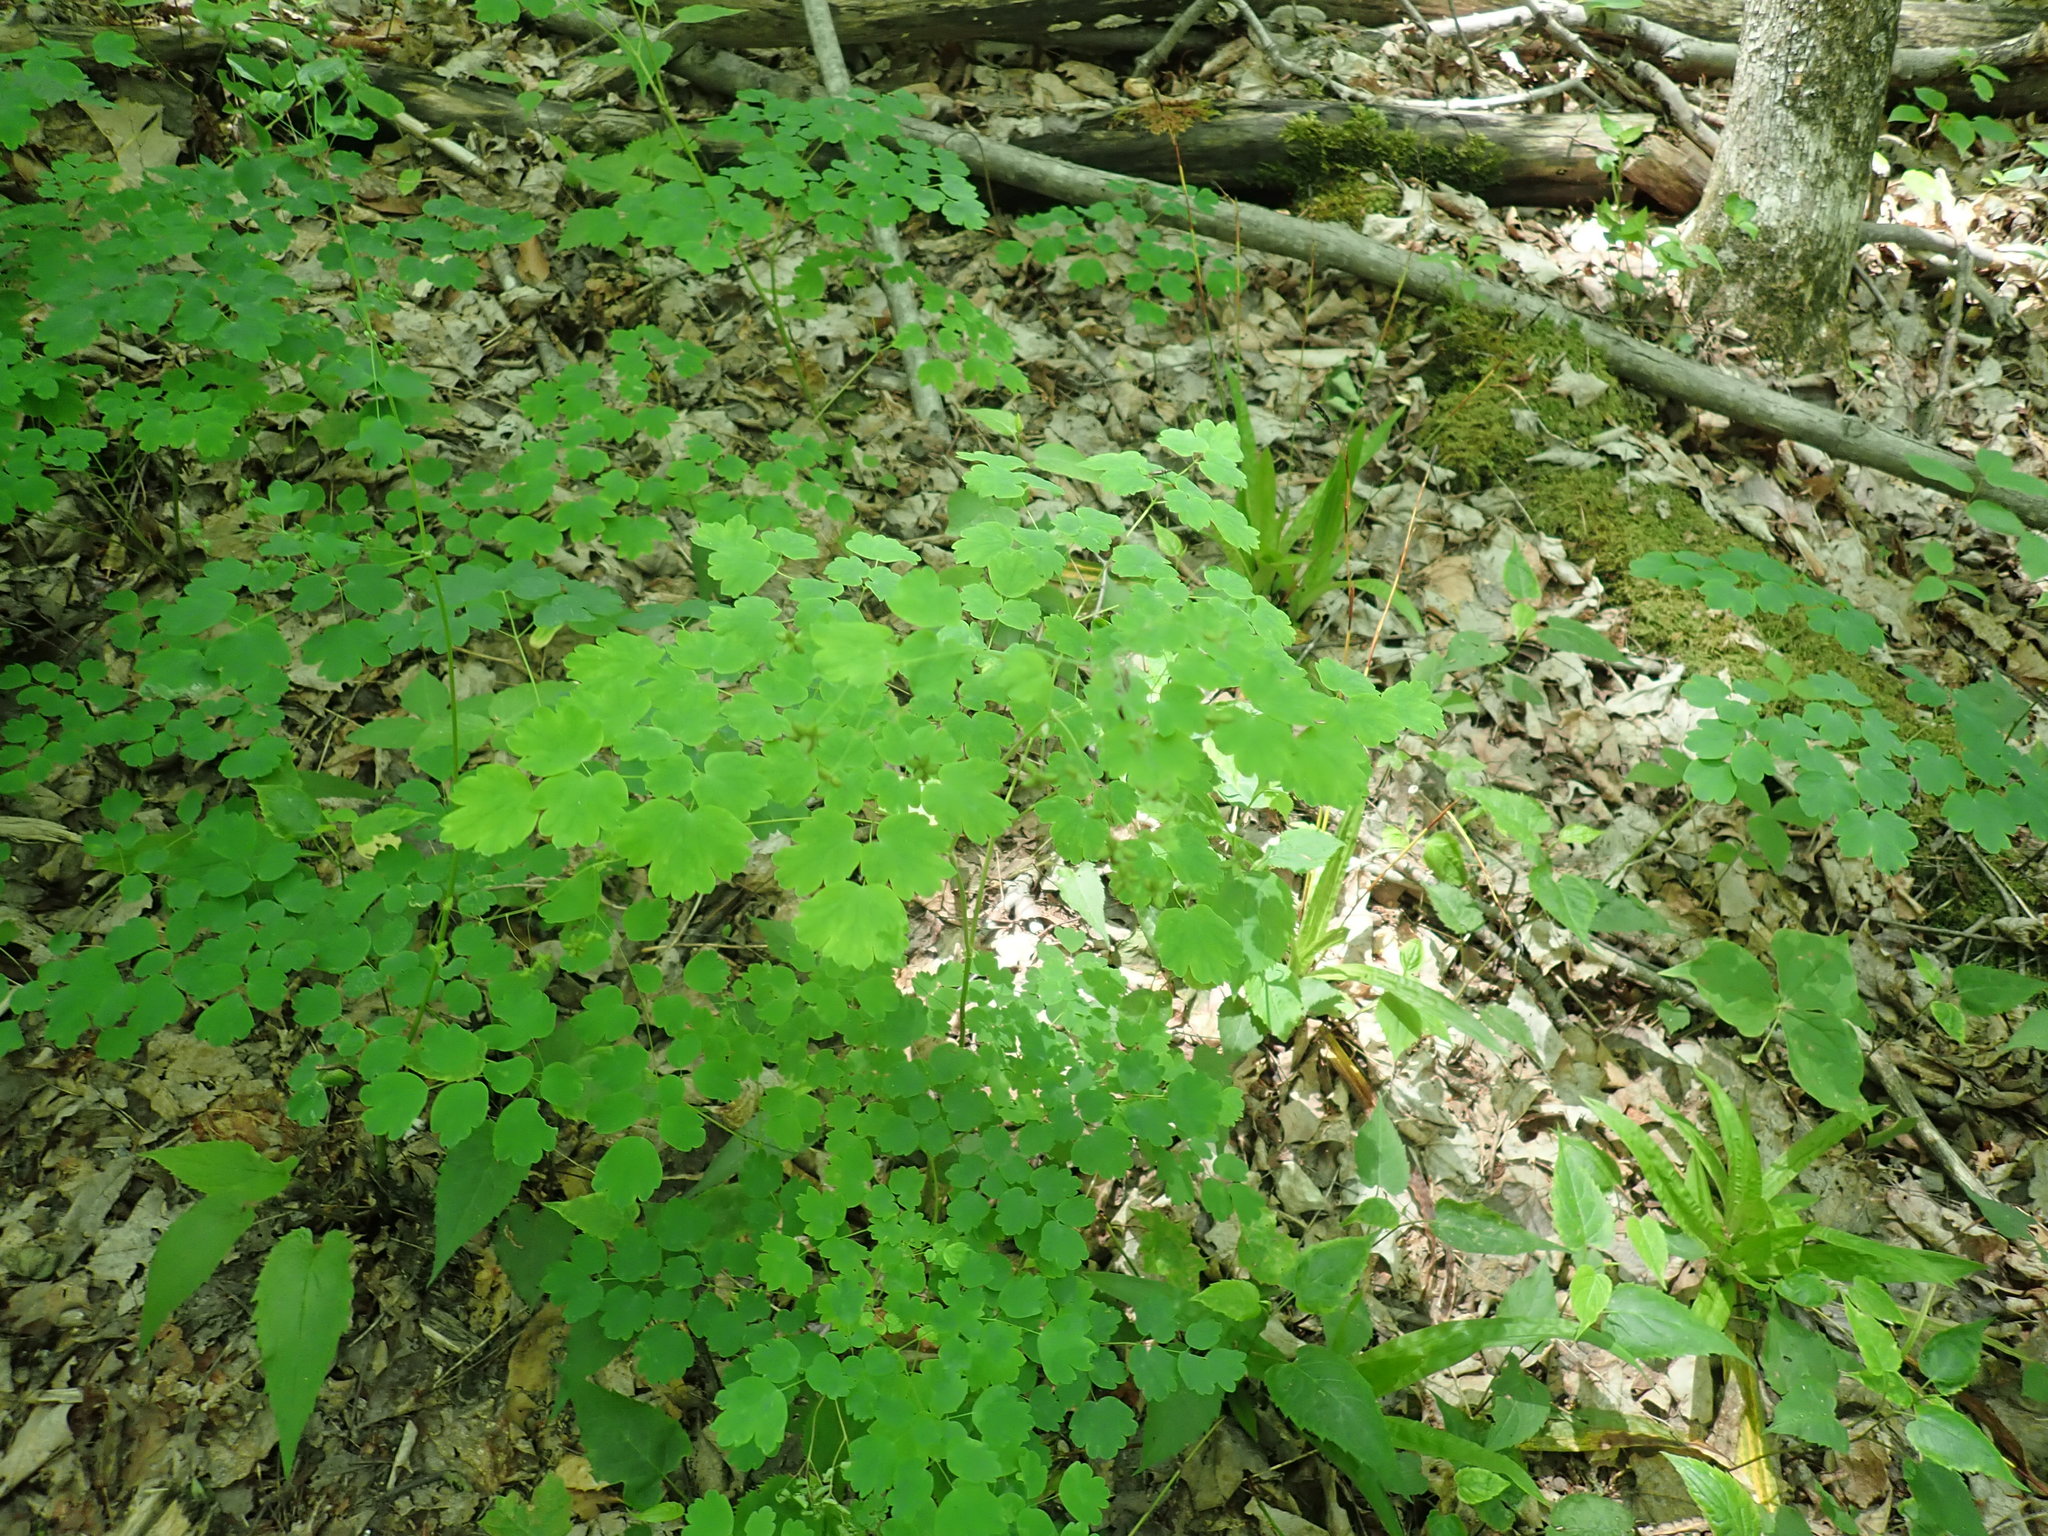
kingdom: Plantae
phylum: Tracheophyta
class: Magnoliopsida
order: Ranunculales
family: Ranunculaceae
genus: Thalictrum
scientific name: Thalictrum dioicum
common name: Early meadow-rue
